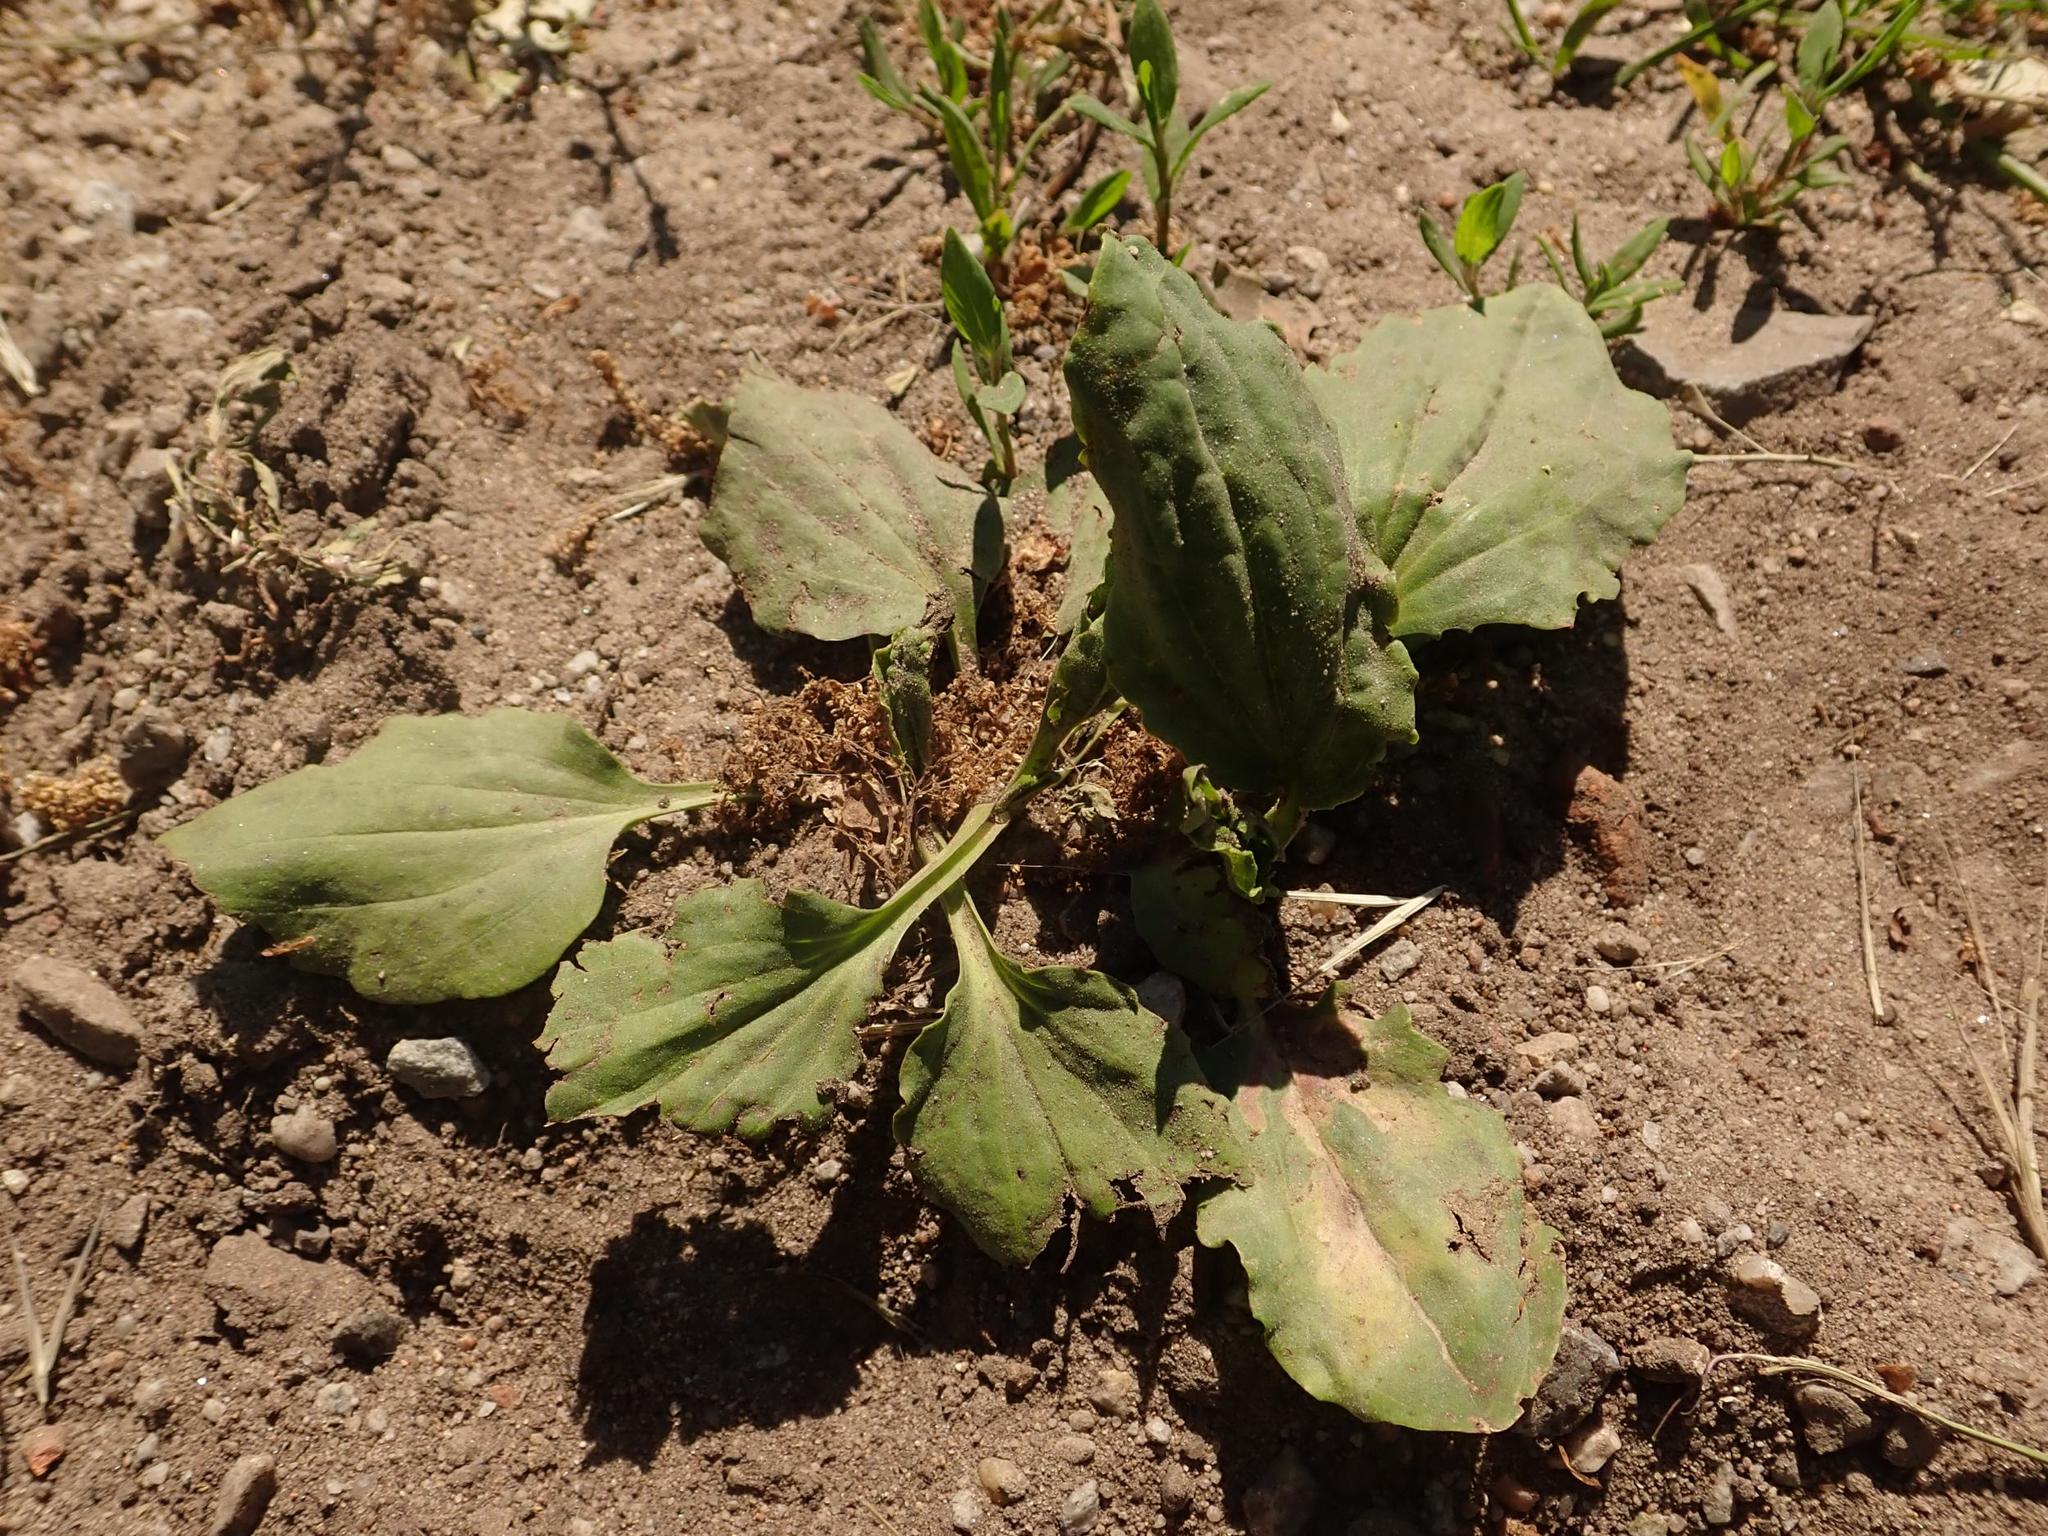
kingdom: Plantae
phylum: Tracheophyta
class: Magnoliopsida
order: Lamiales
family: Plantaginaceae
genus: Plantago
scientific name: Plantago major
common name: Common plantain
